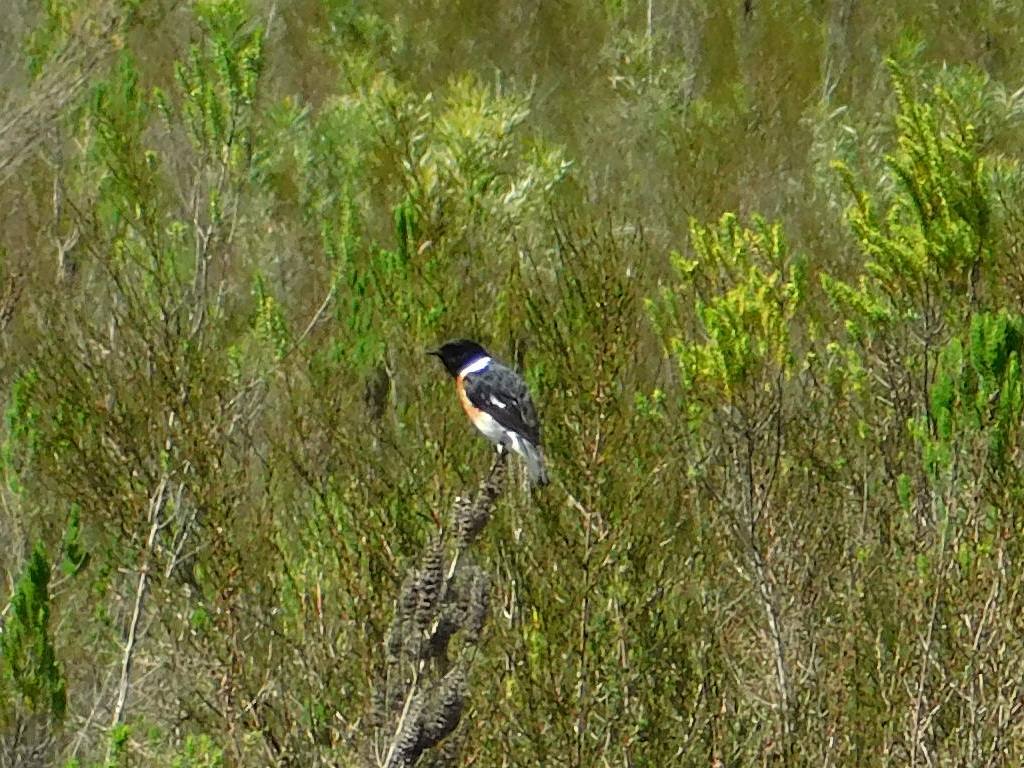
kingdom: Animalia
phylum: Chordata
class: Aves
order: Passeriformes
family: Muscicapidae
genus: Saxicola
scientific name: Saxicola torquatus
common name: African stonechat
